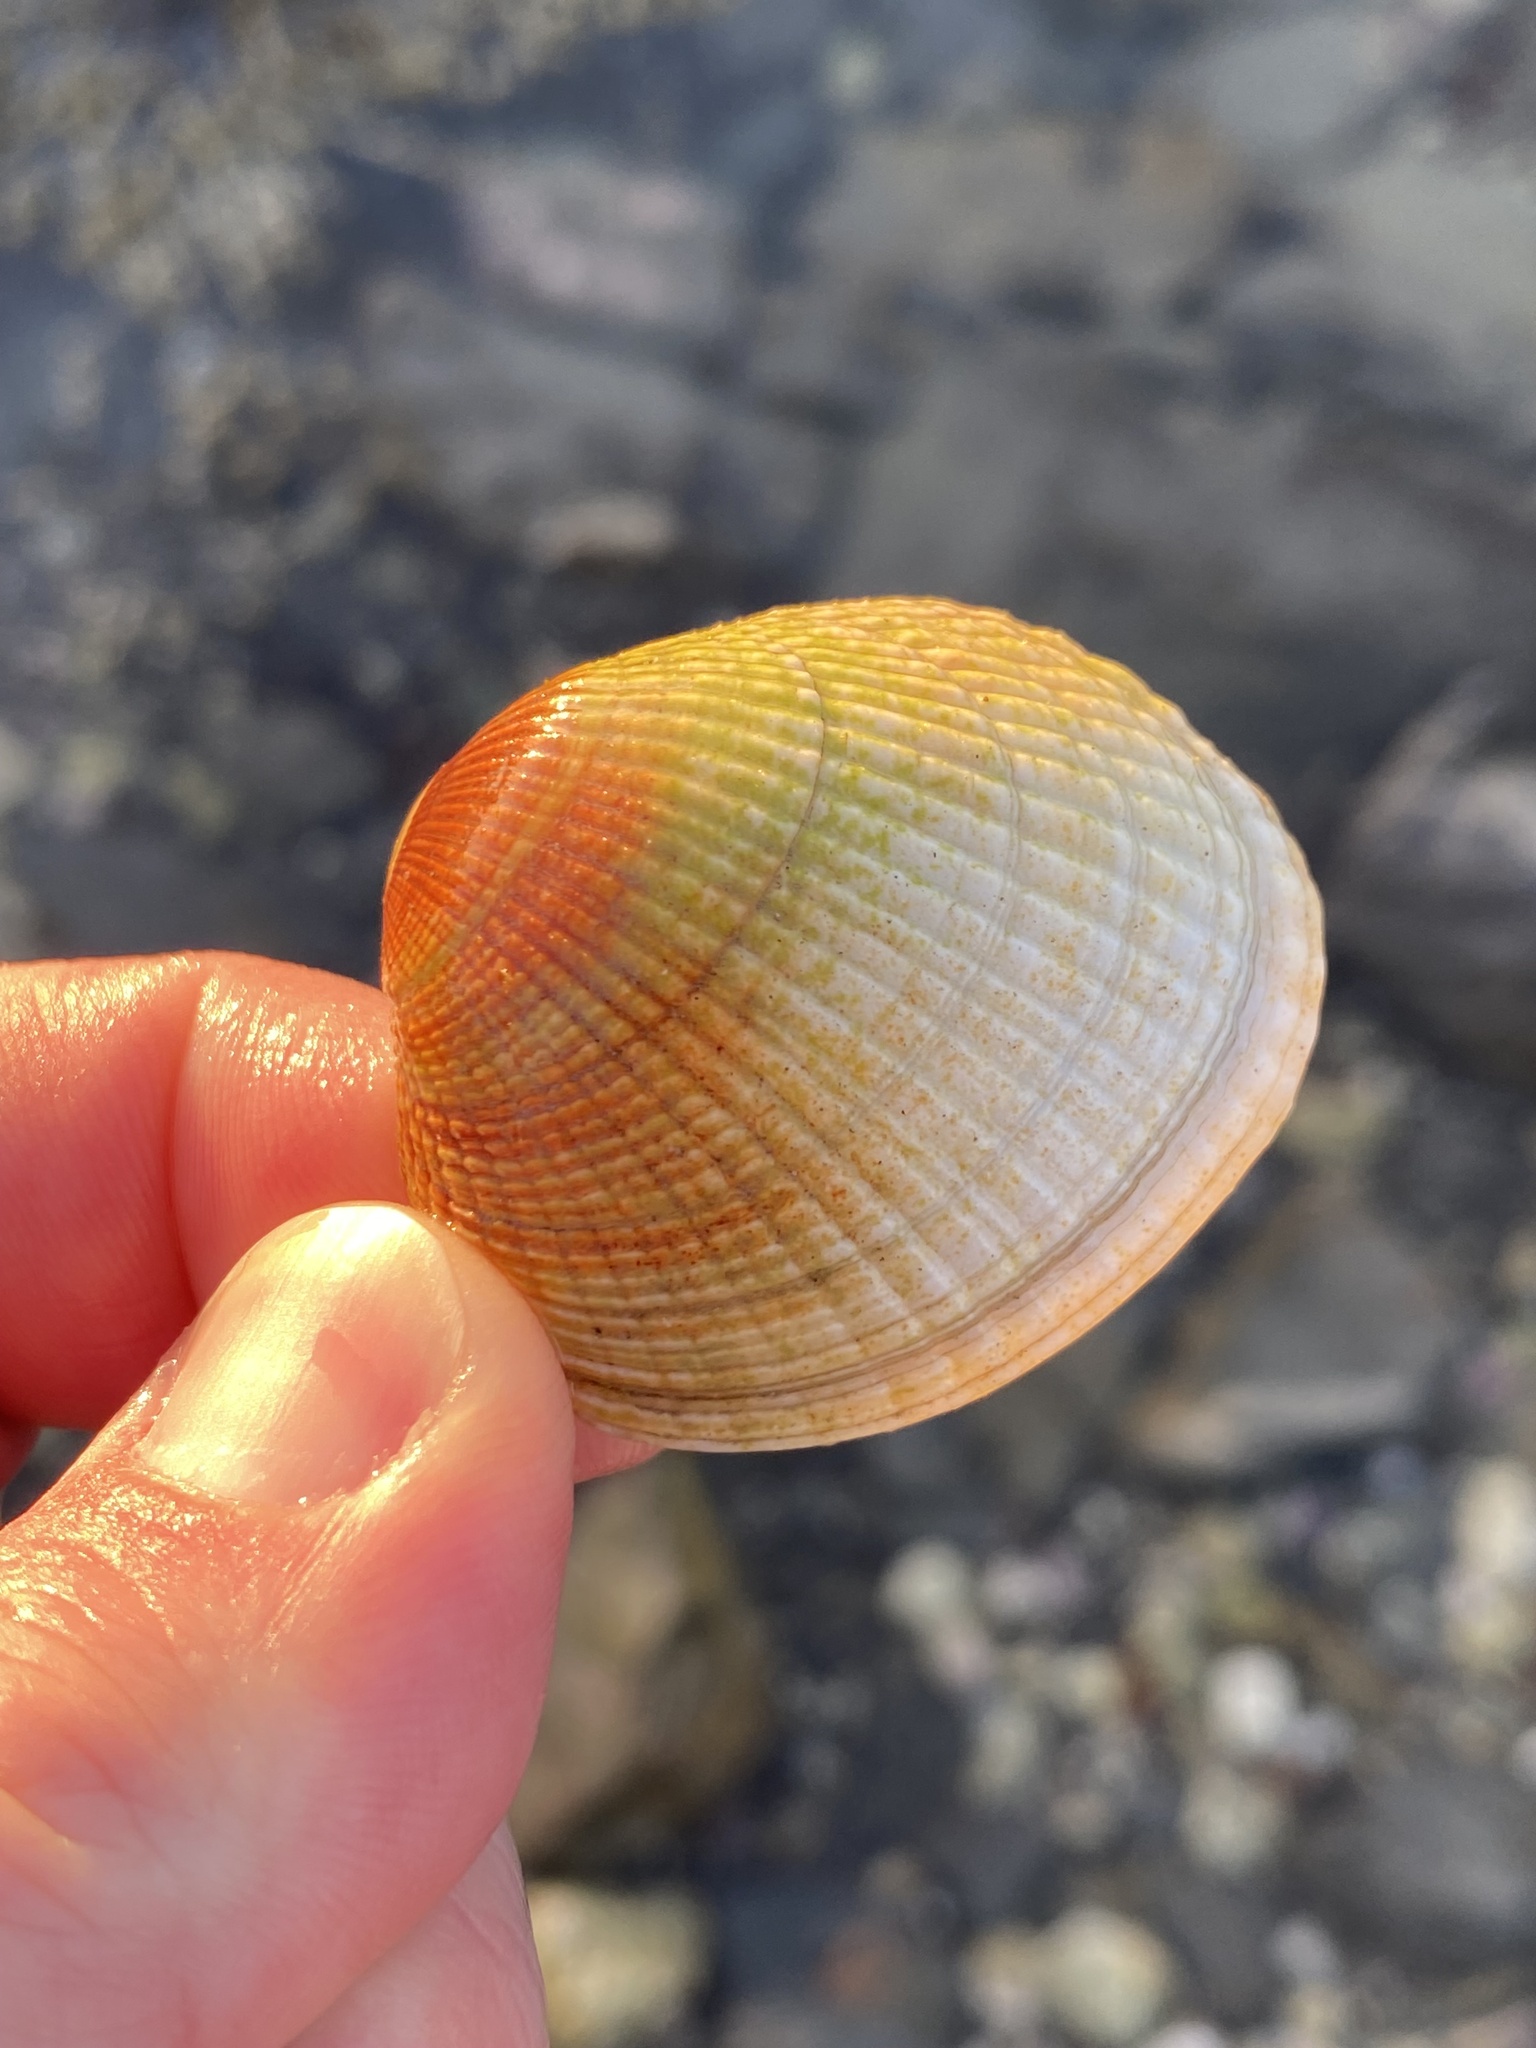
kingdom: Animalia
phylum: Mollusca
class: Bivalvia
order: Venerida
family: Veneridae
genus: Leukoma
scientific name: Leukoma crassicosta
